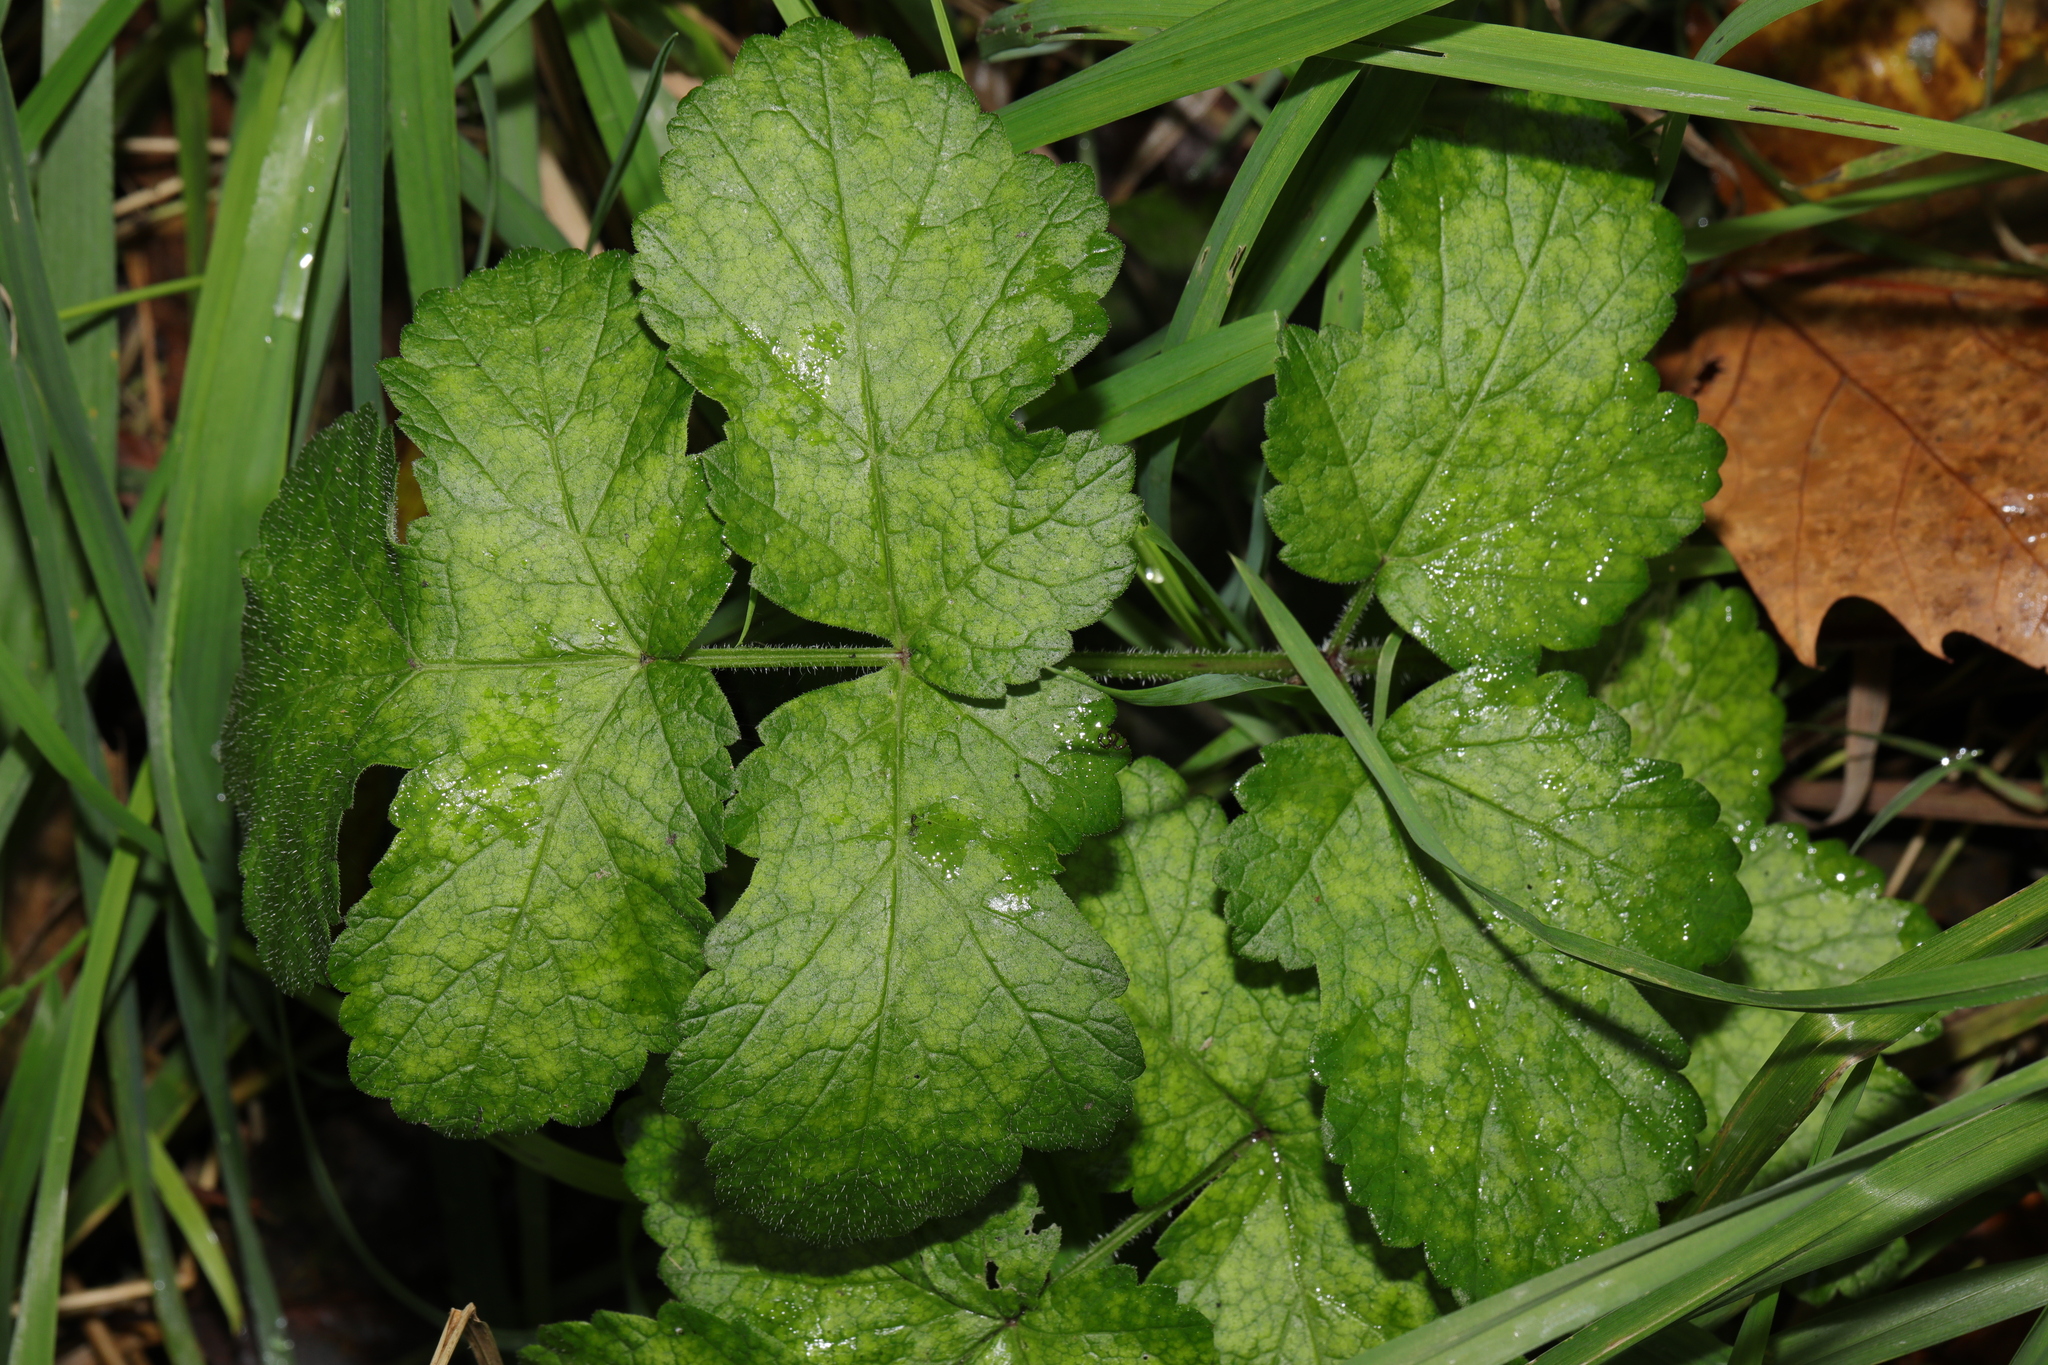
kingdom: Plantae
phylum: Tracheophyta
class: Magnoliopsida
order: Apiales
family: Apiaceae
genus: Heracleum
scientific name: Heracleum sphondylium
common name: Hogweed
